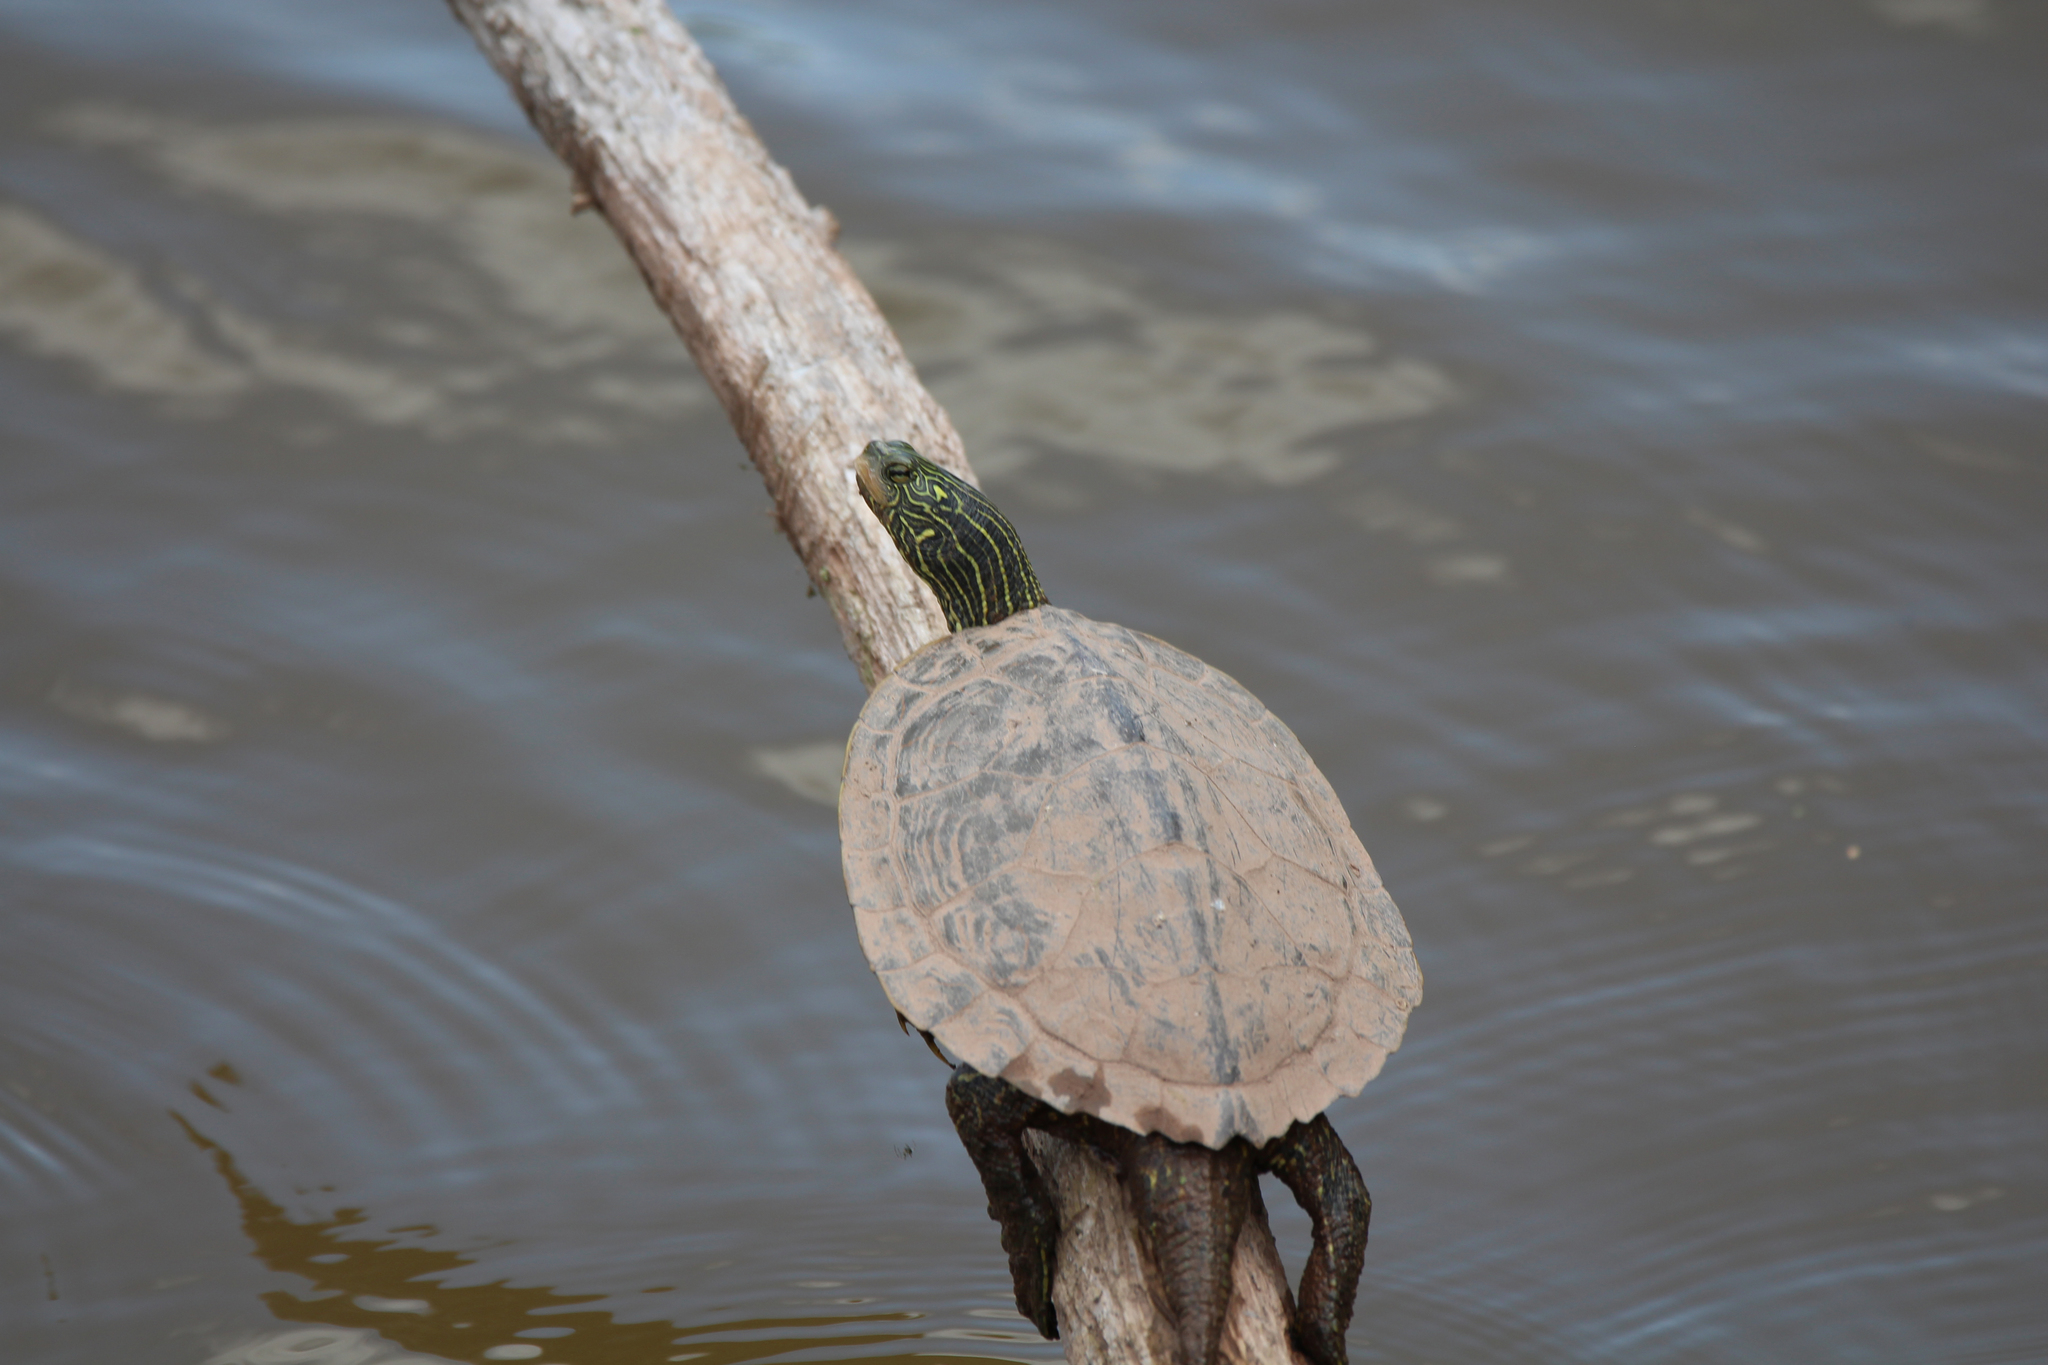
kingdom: Animalia
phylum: Chordata
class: Testudines
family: Emydidae
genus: Graptemys
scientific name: Graptemys geographica
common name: Common map turtle
